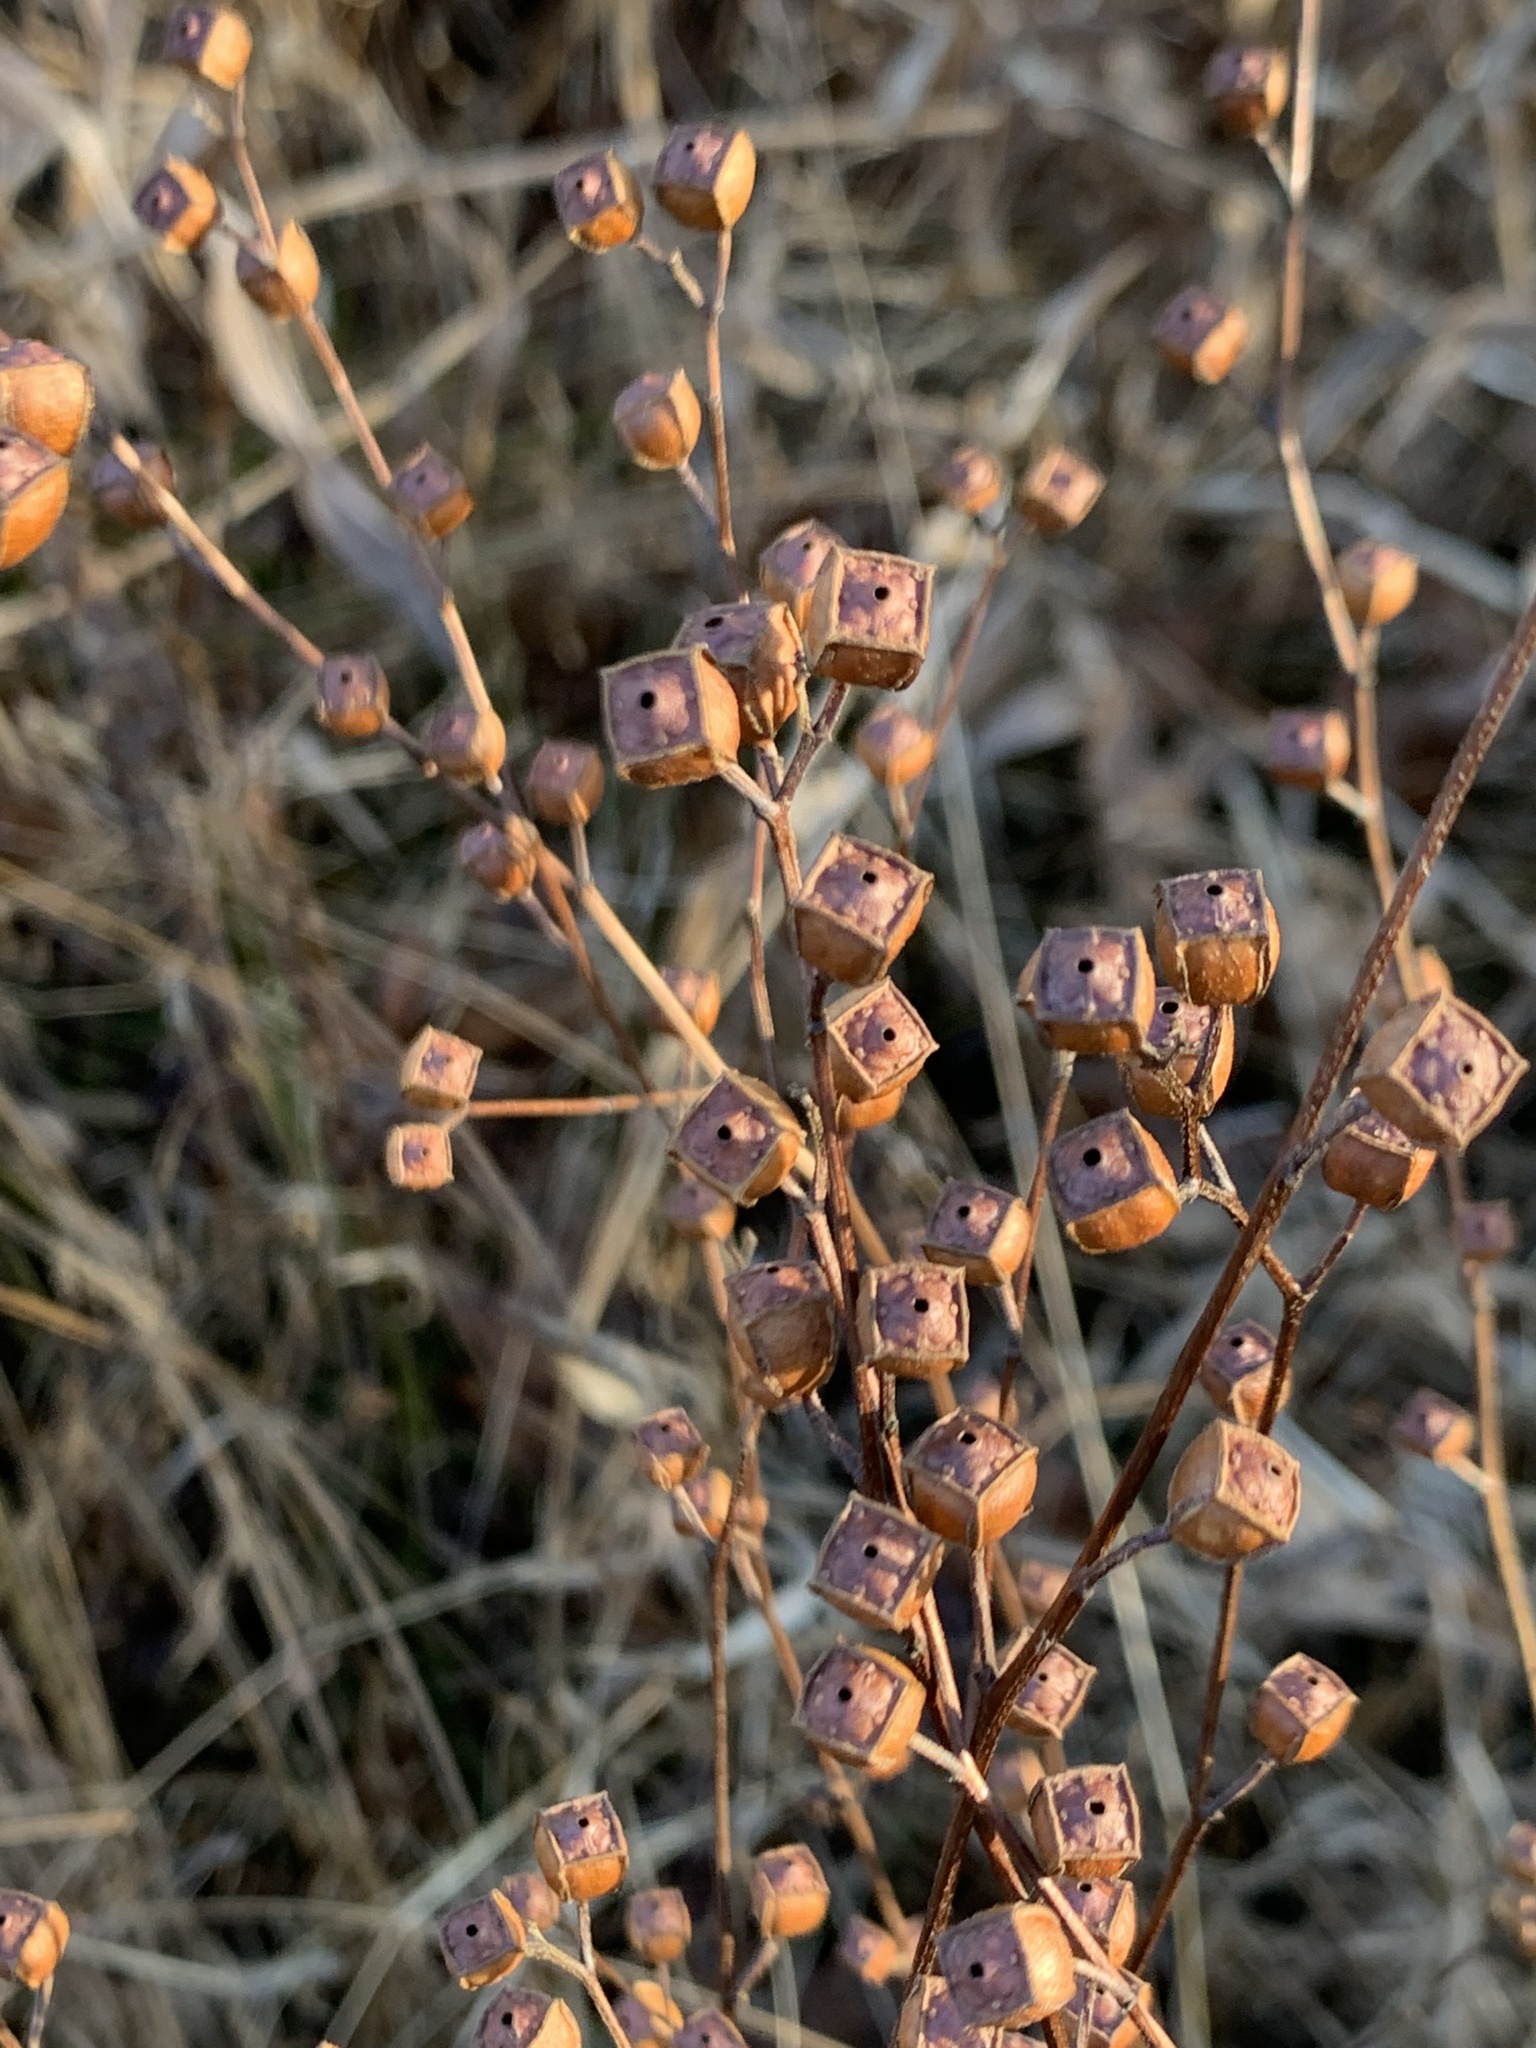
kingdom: Plantae
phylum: Tracheophyta
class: Magnoliopsida
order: Myrtales
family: Onagraceae
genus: Ludwigia
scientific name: Ludwigia alternifolia
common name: Rattlebox
